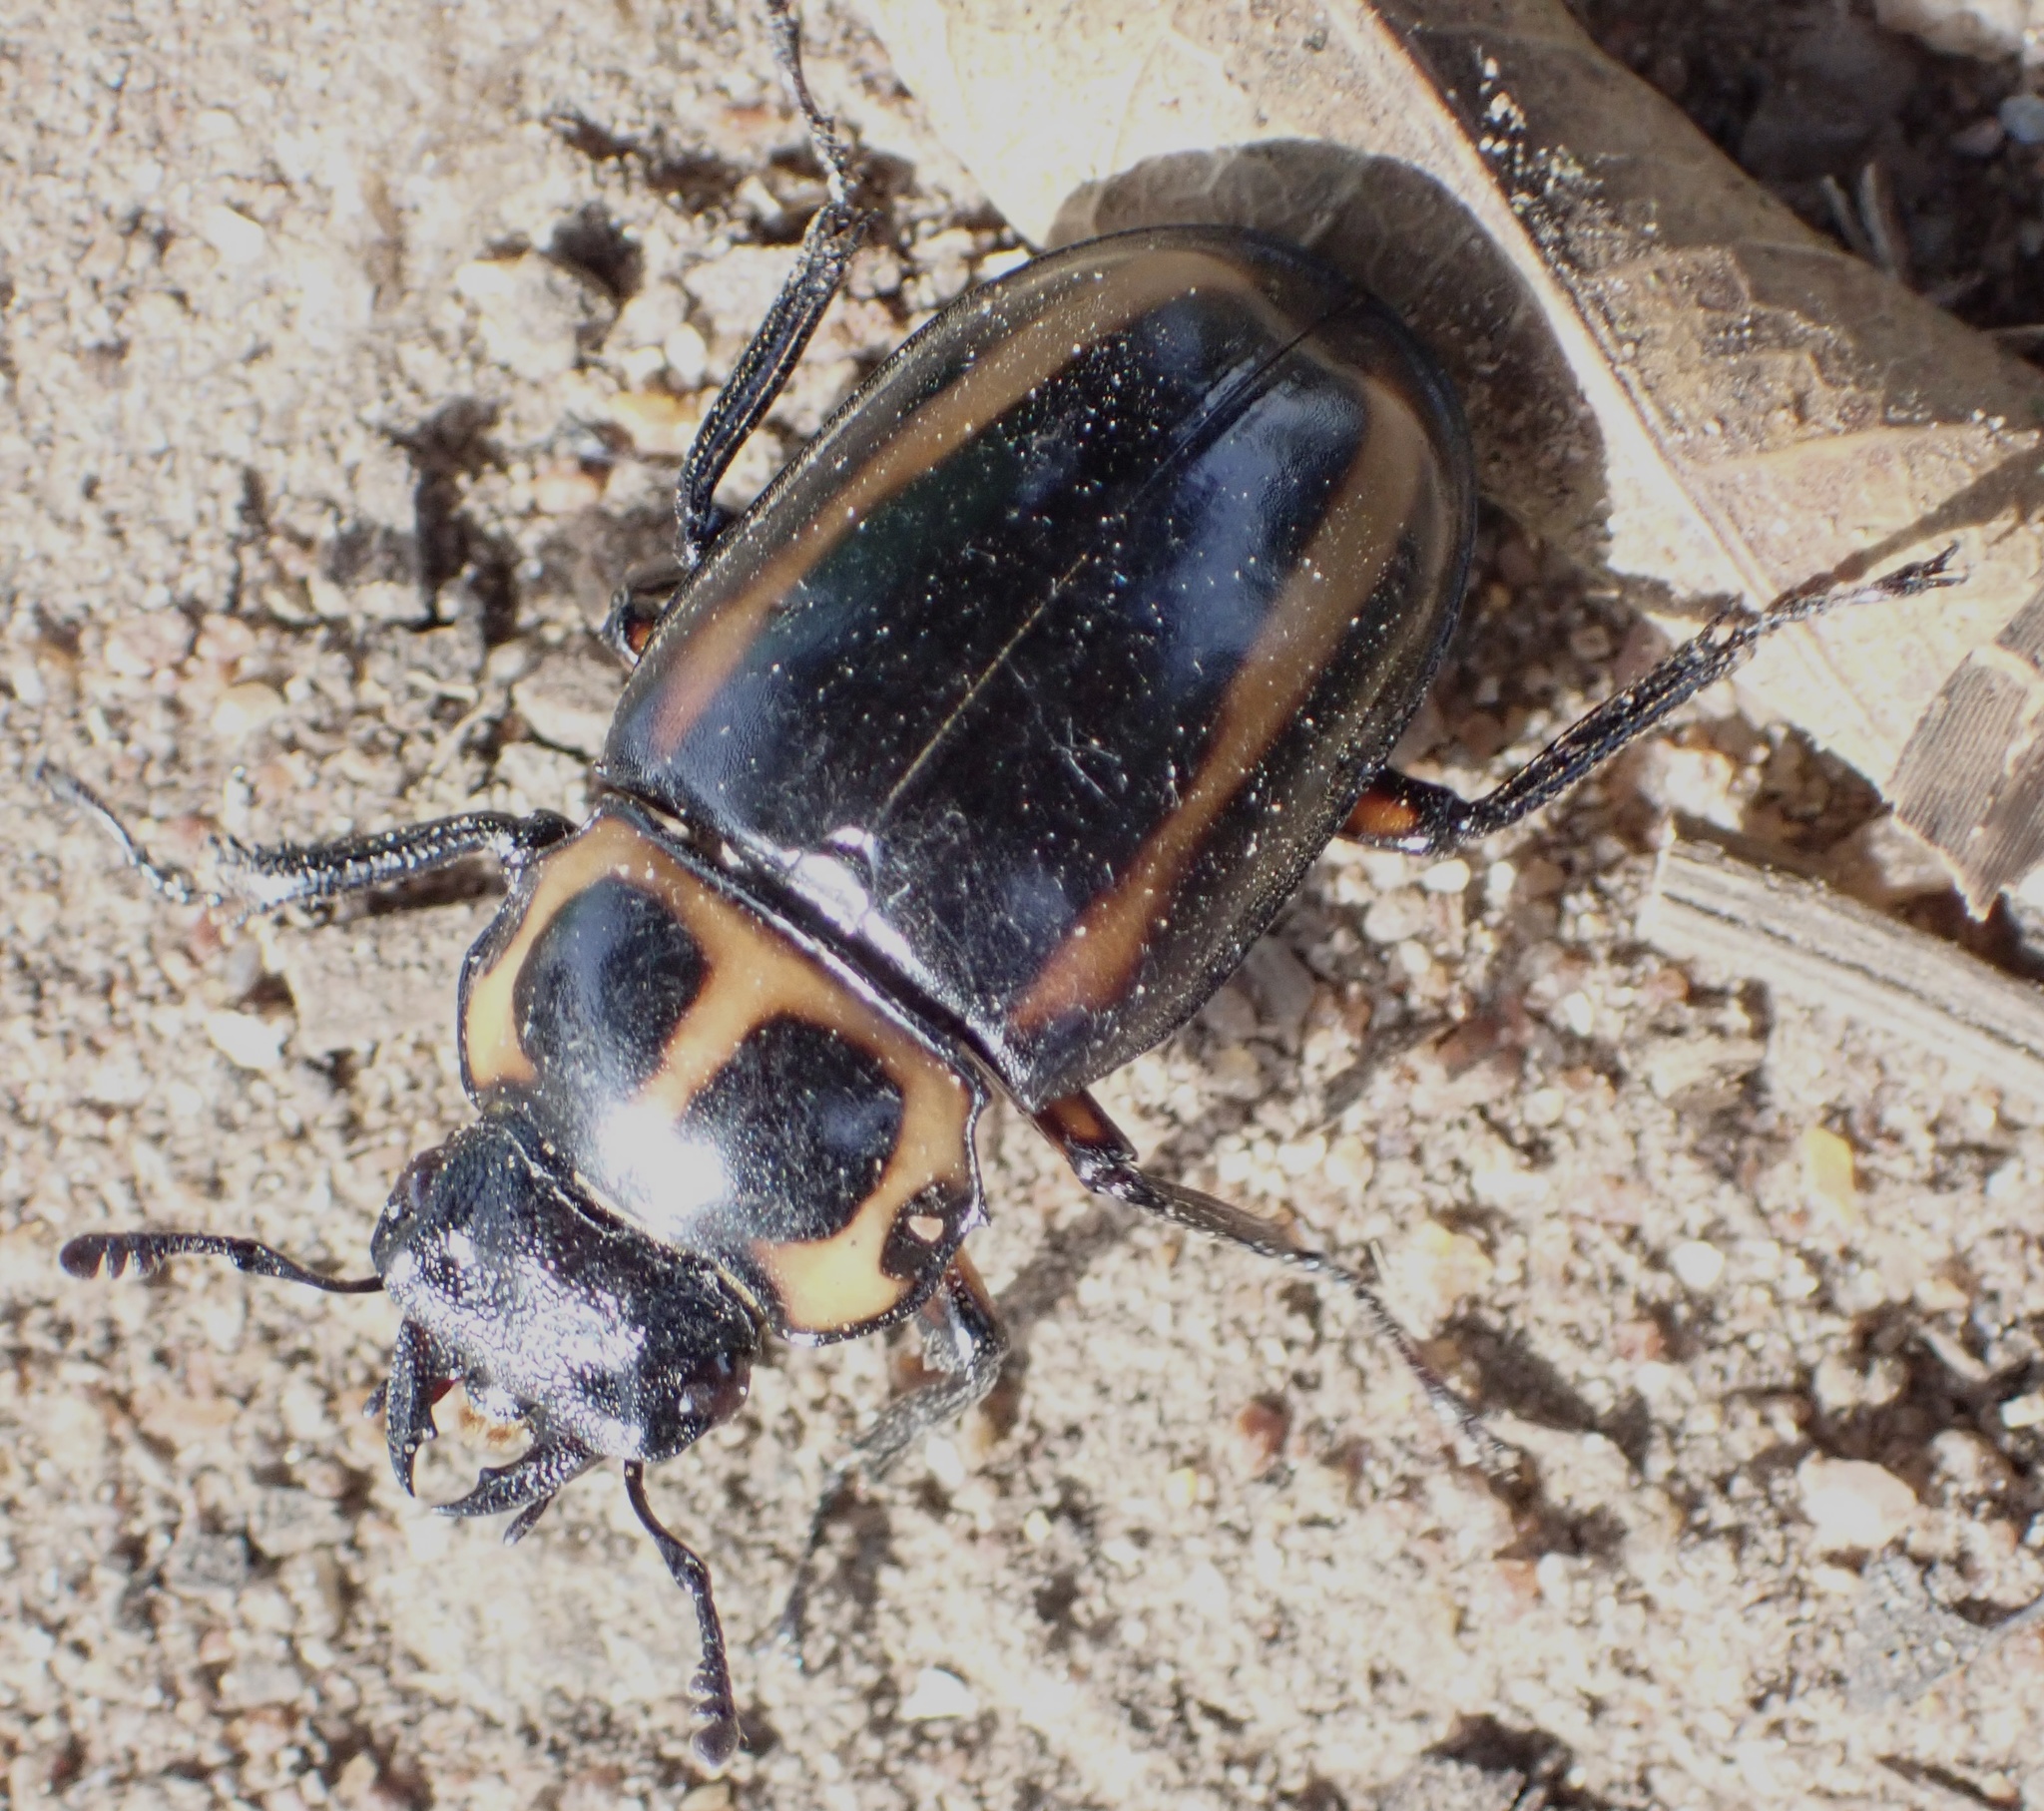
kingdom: Animalia
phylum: Arthropoda
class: Insecta
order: Coleoptera
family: Lucanidae
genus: Homoderus
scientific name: Homoderus mellyi
